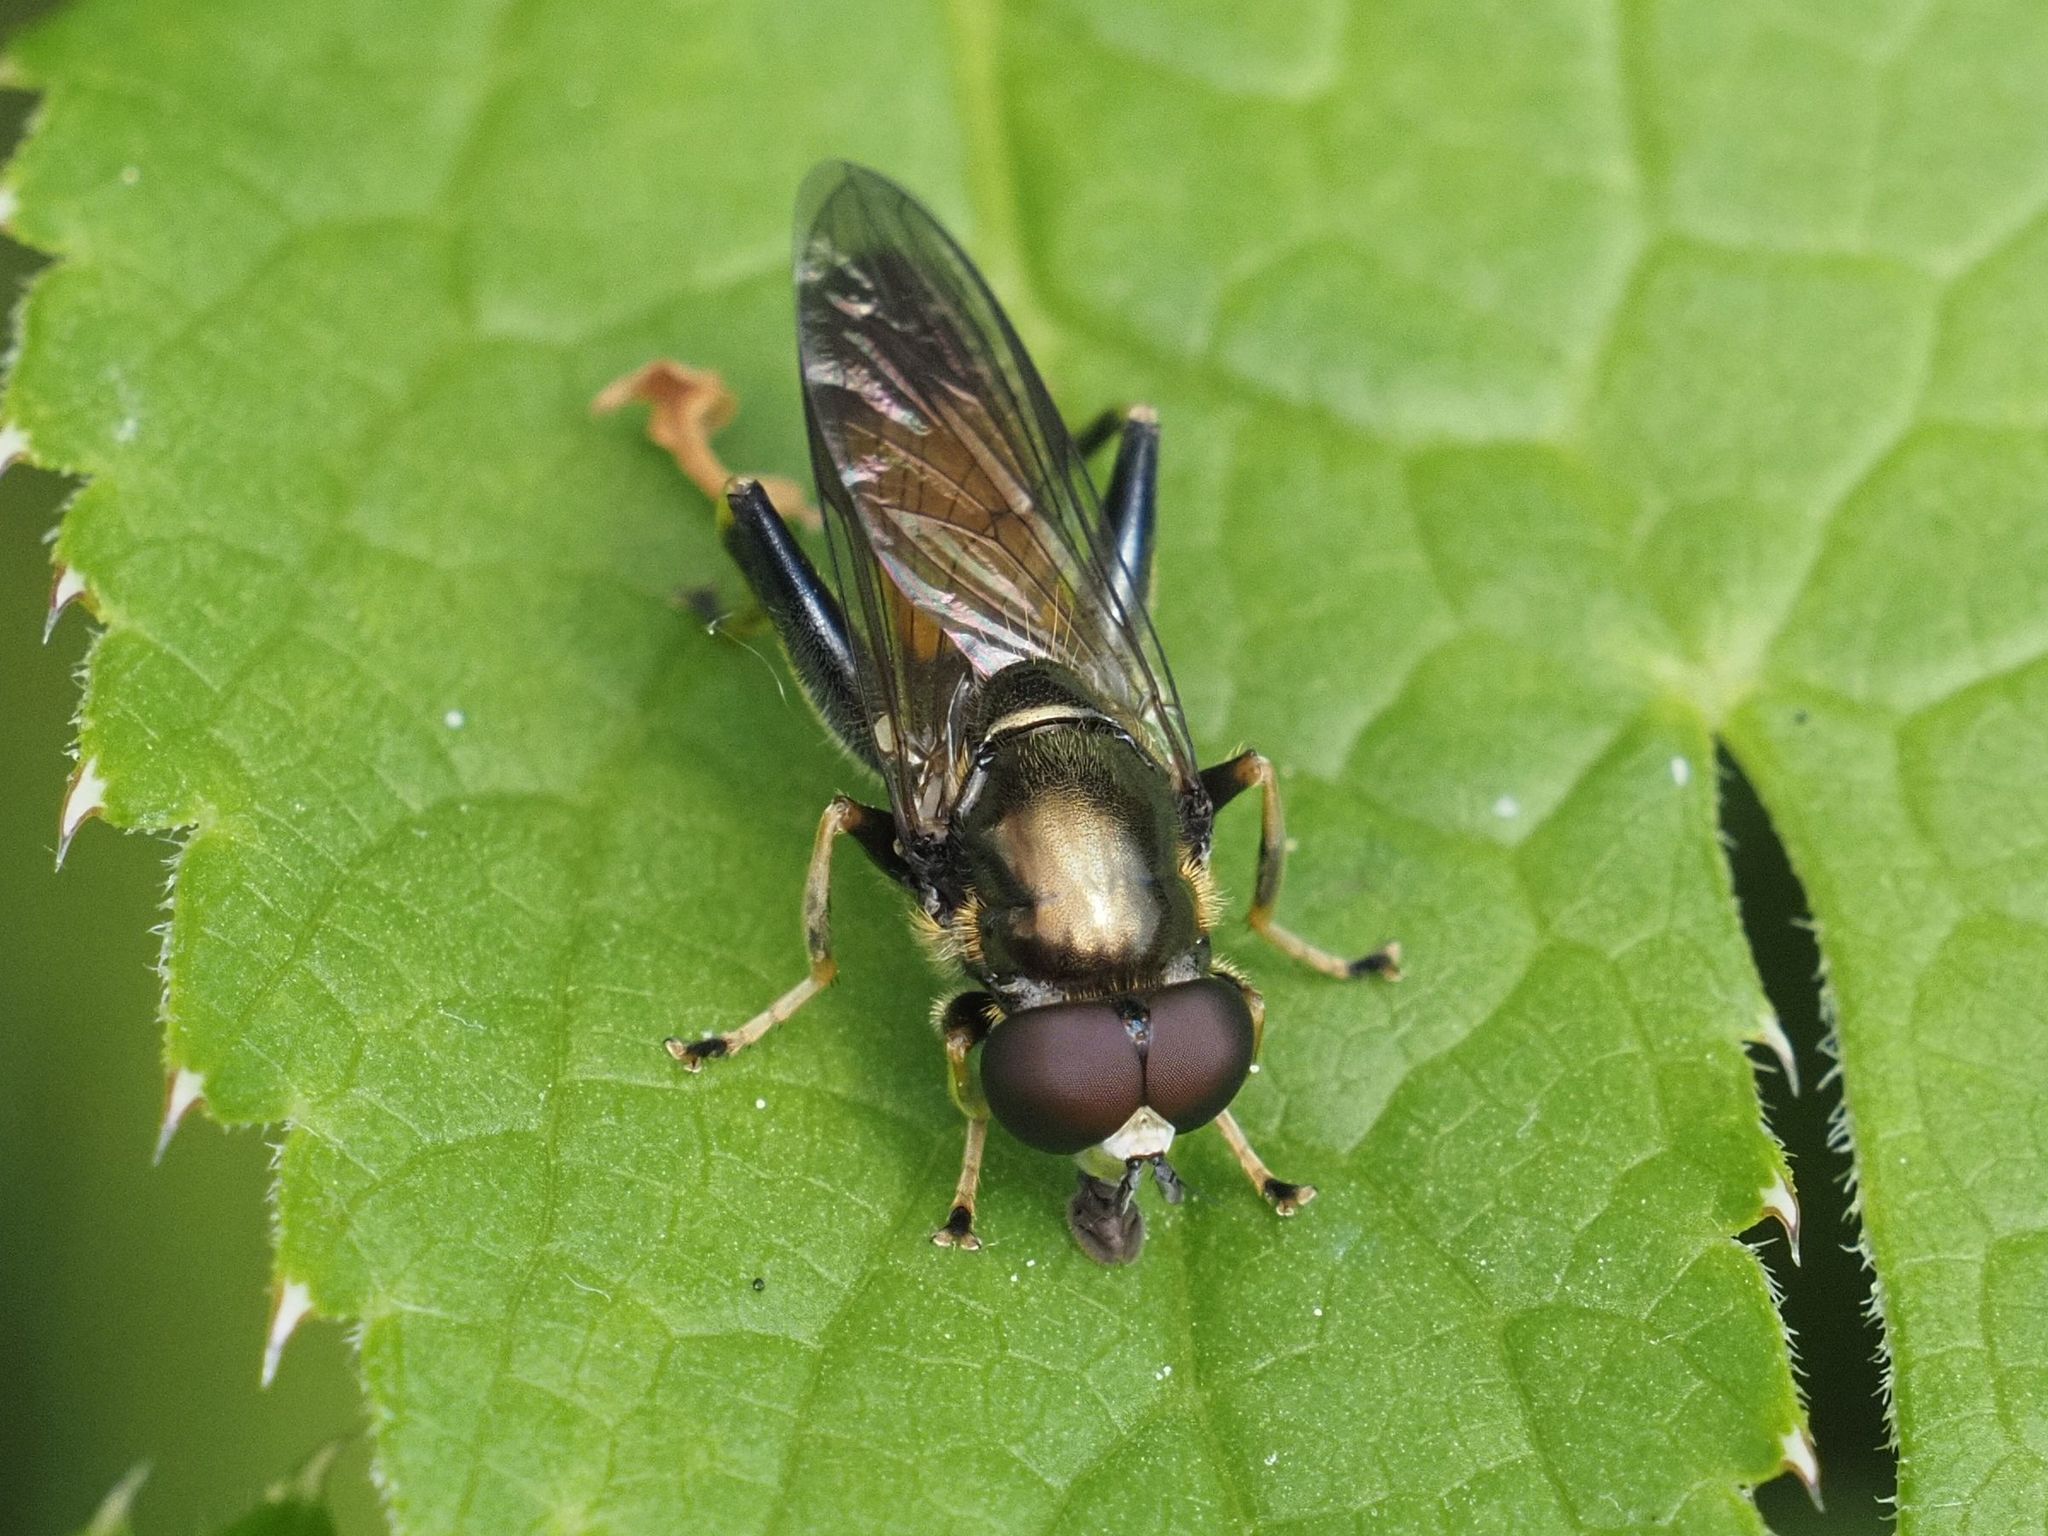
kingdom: Animalia
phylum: Arthropoda
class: Insecta
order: Diptera
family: Syrphidae
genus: Xylota
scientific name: Xylota segnis
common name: Brown-toed forest fly
